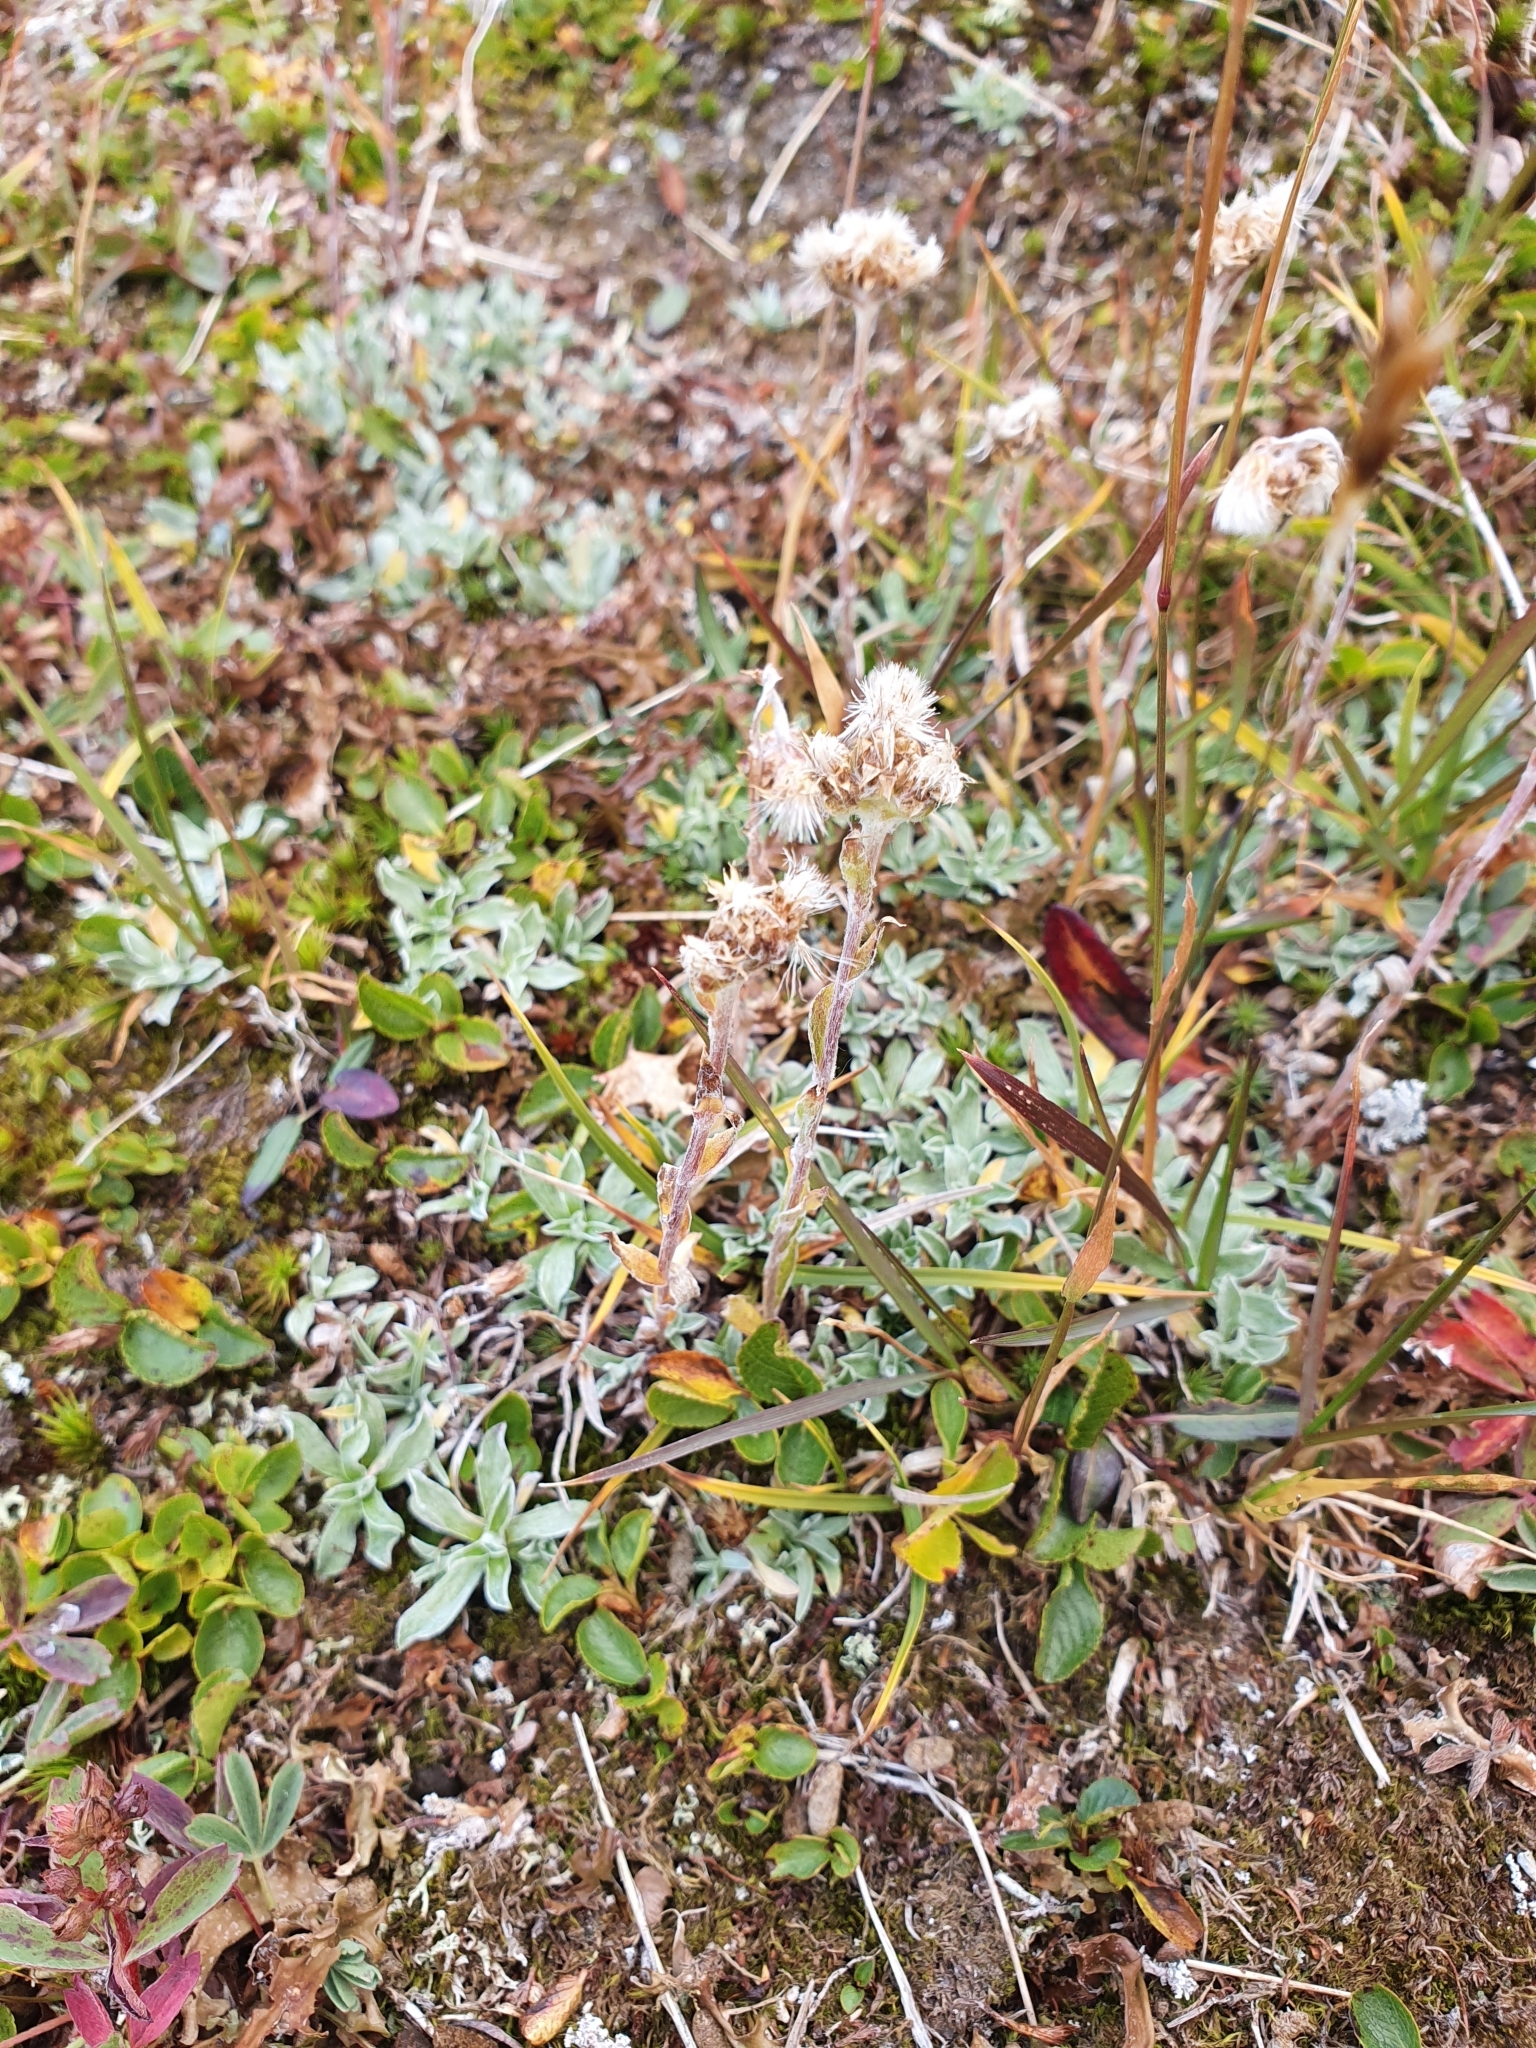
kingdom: Plantae
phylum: Tracheophyta
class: Magnoliopsida
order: Asterales
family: Asteraceae
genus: Antennaria
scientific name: Antennaria dioica
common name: Mountain everlasting
